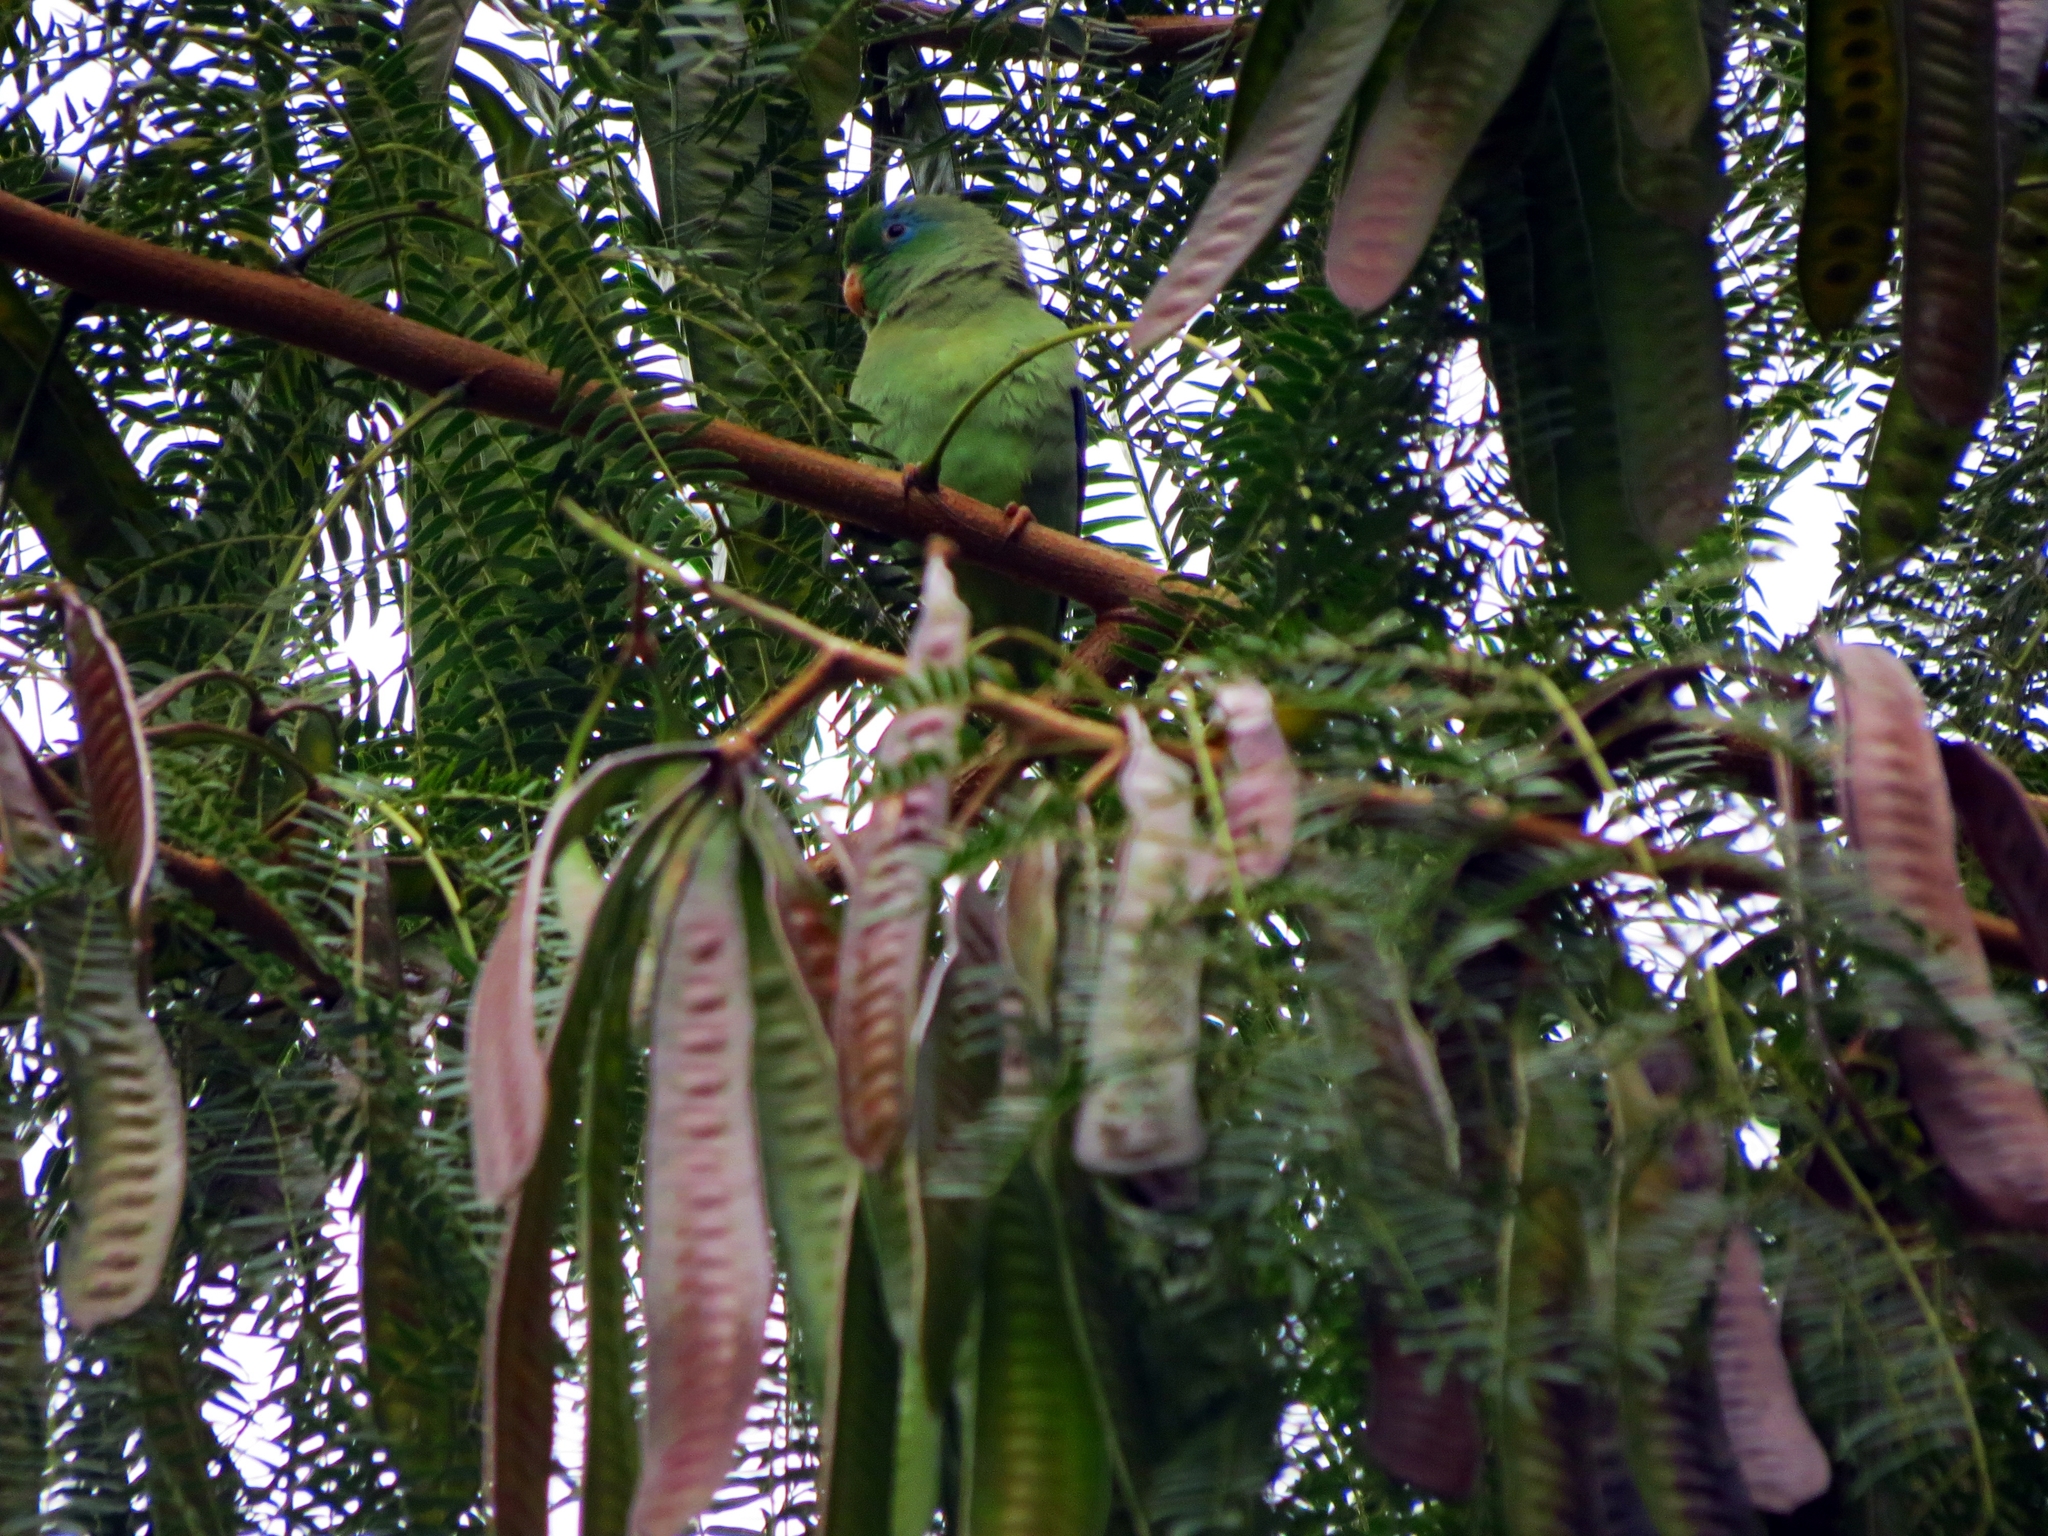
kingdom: Animalia
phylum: Chordata
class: Aves
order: Psittaciformes
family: Psittacidae
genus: Forpus
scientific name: Forpus conspicillatus
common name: Spectacled parrotlet
